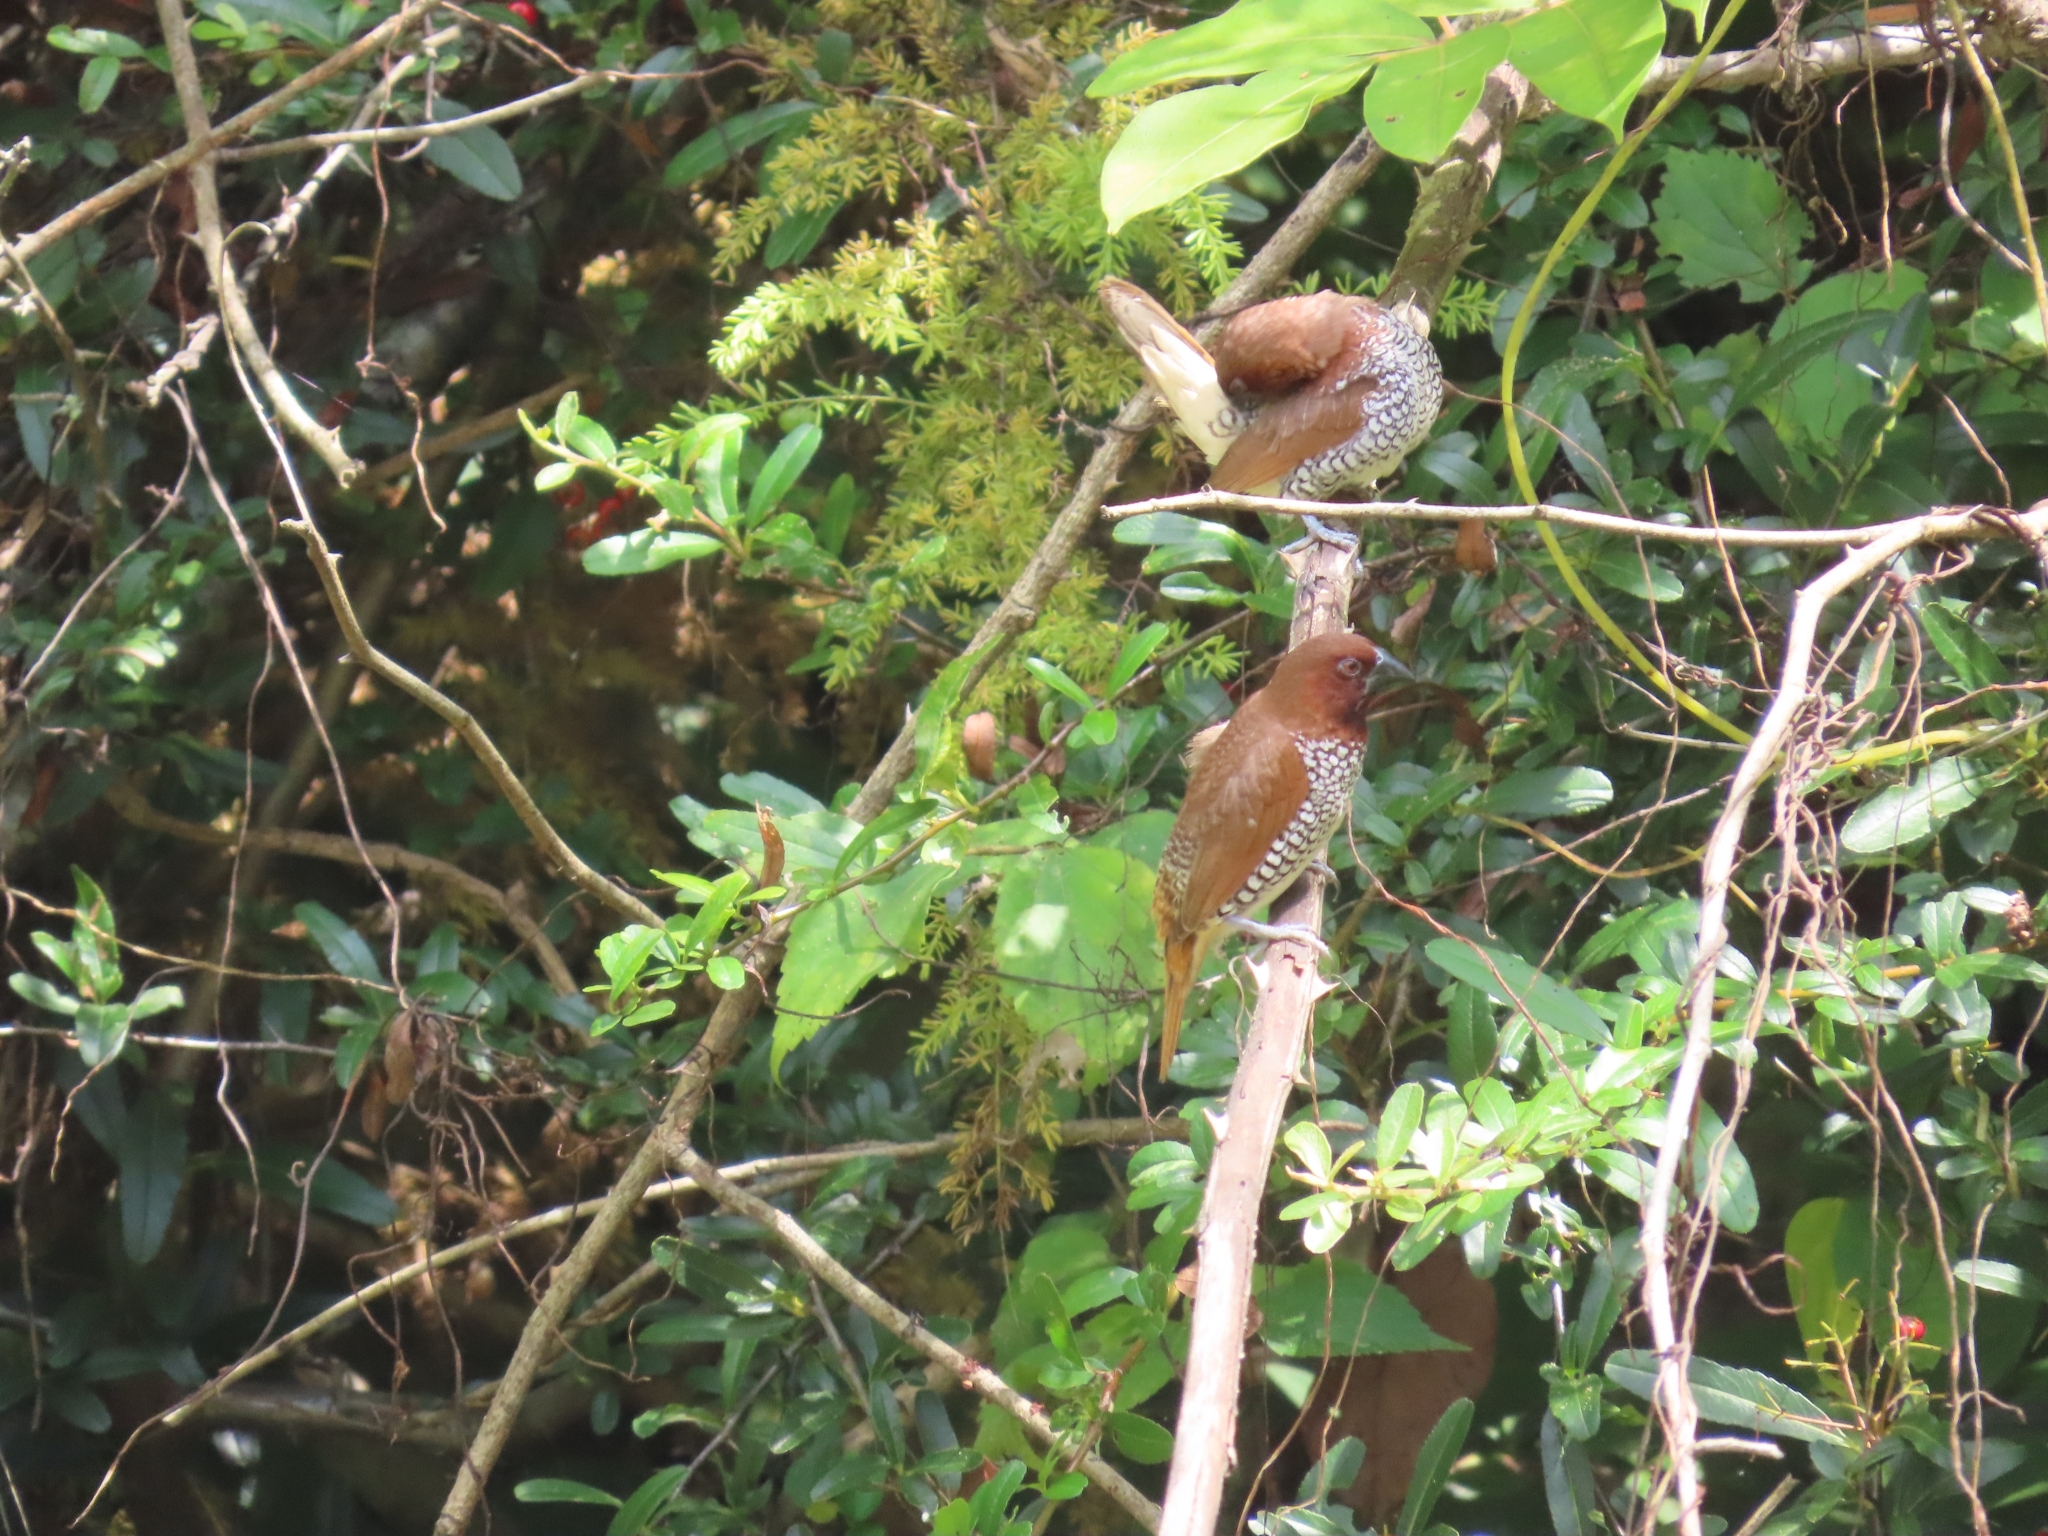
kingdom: Animalia
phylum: Chordata
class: Aves
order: Passeriformes
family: Estrildidae
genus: Lonchura
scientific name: Lonchura punctulata
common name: Scaly-breasted munia
